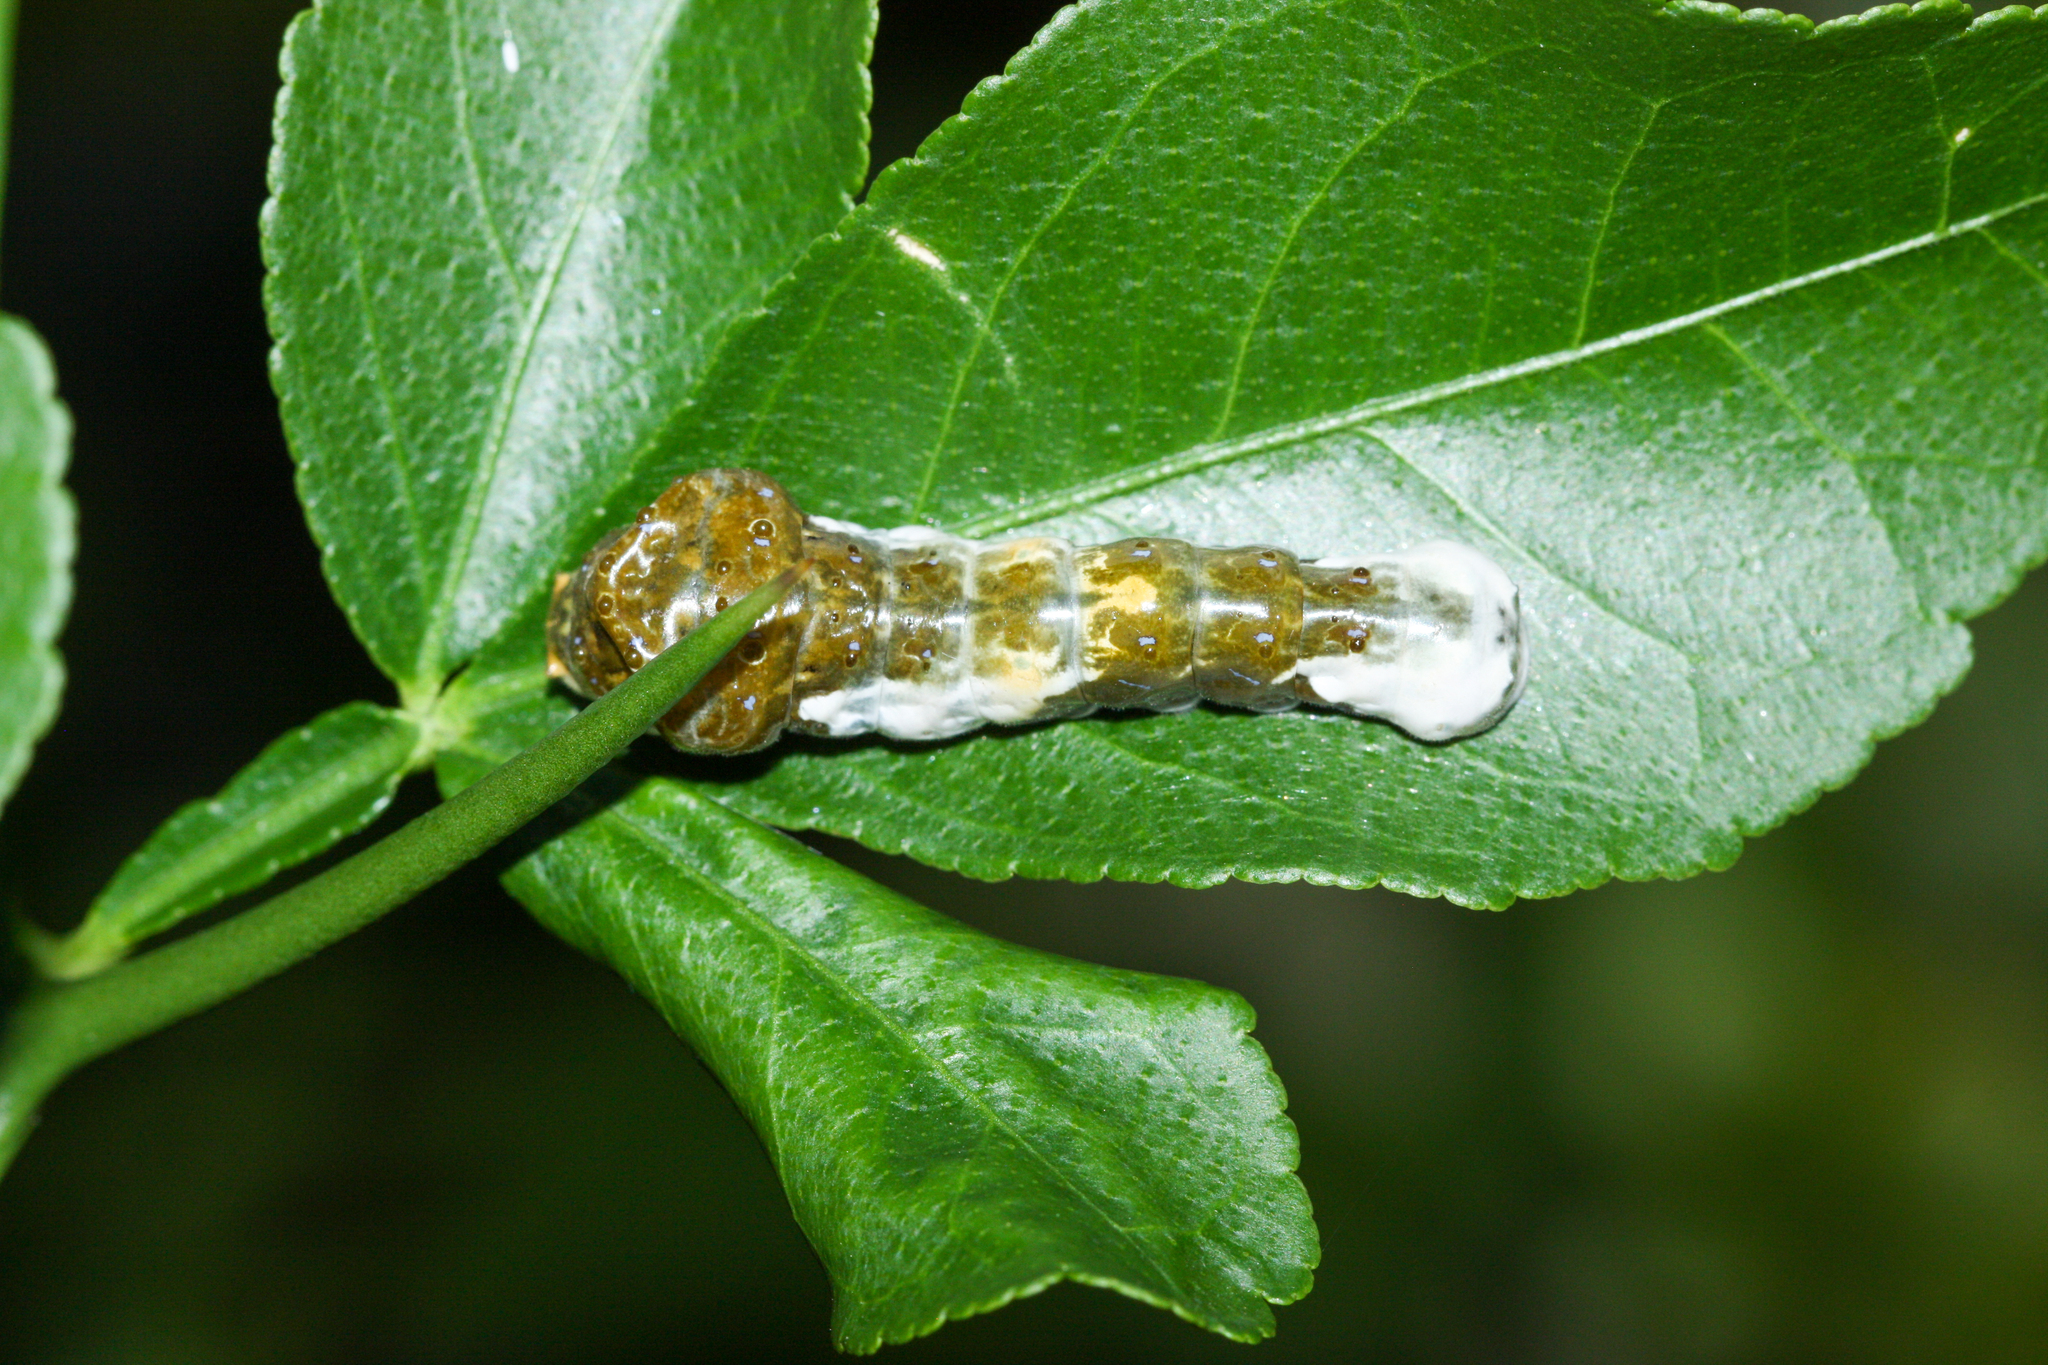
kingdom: Animalia
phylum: Arthropoda
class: Insecta
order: Lepidoptera
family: Papilionidae
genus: Papilio
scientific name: Papilio rumiko
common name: Western giant swallowtail
